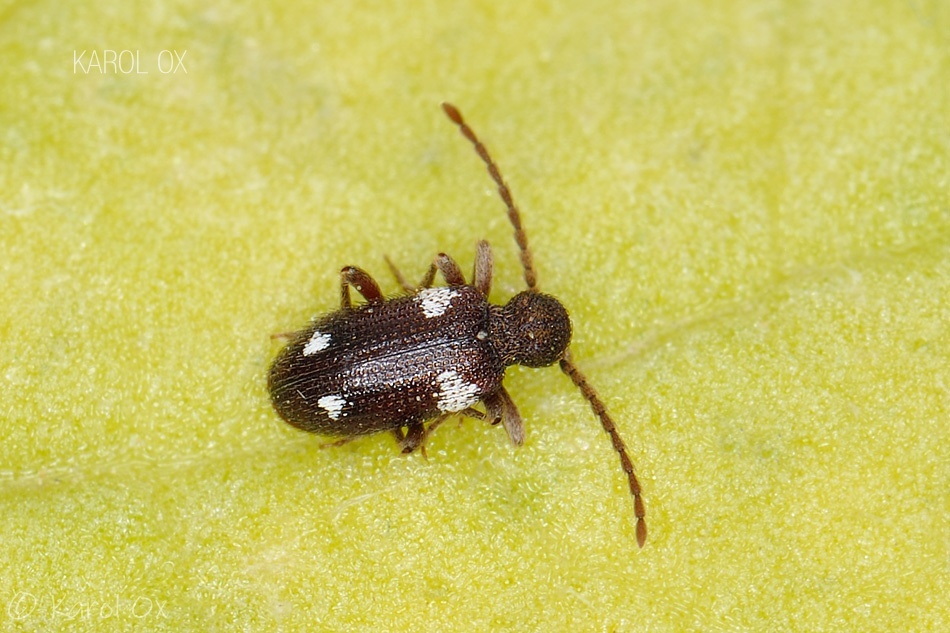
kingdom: Animalia
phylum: Arthropoda
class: Insecta
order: Coleoptera
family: Ptinidae
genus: Ptinus
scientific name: Ptinus sexpunctatus
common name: Six-spotted spider beetle
